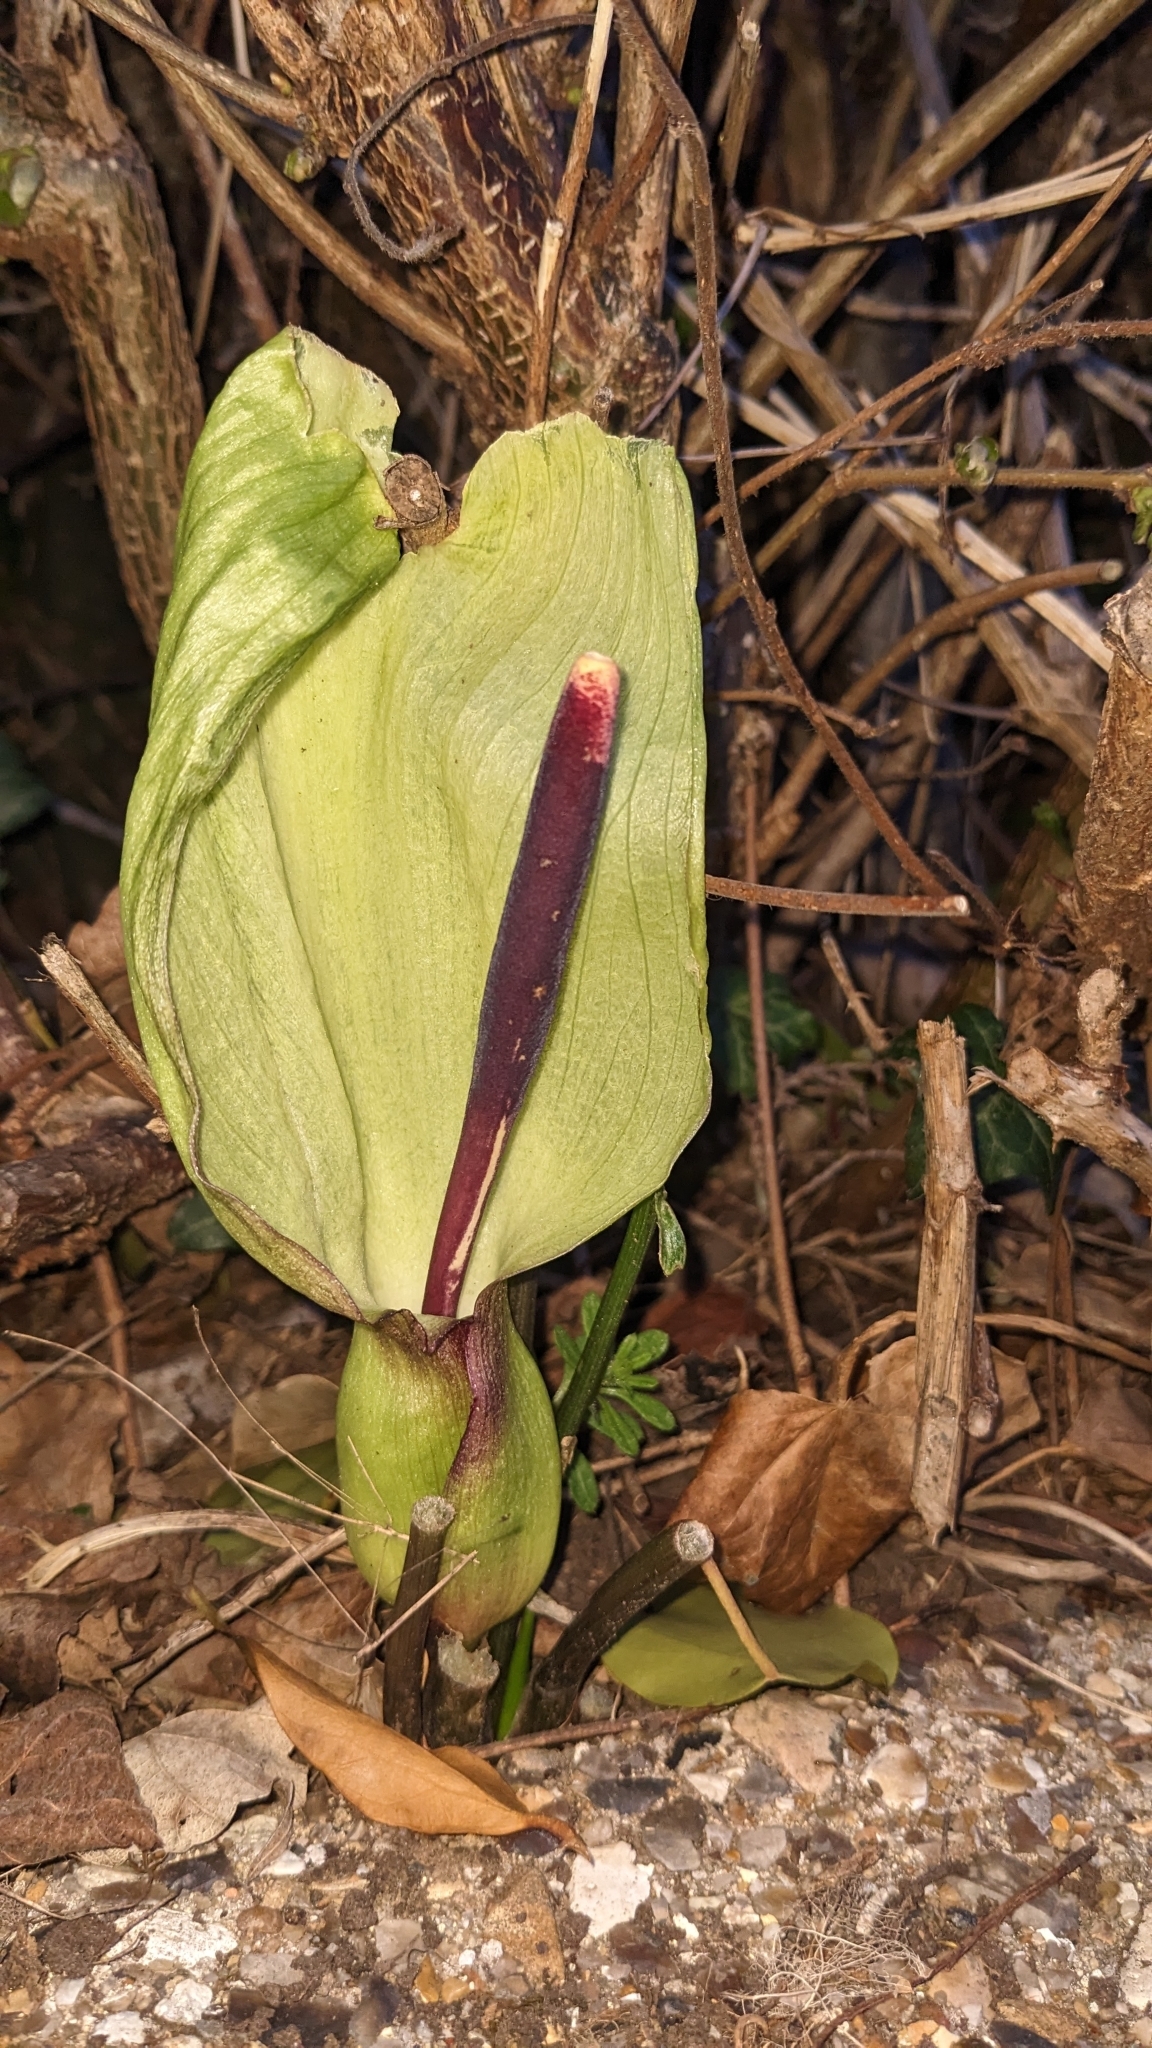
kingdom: Plantae
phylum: Tracheophyta
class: Liliopsida
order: Alismatales
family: Araceae
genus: Arum
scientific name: Arum maculatum
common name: Lords-and-ladies
